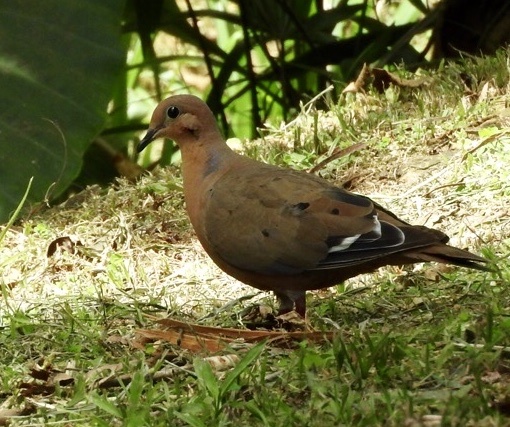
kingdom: Animalia
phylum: Chordata
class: Aves
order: Columbiformes
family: Columbidae
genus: Zenaida
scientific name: Zenaida aurita
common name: Zenaida dove
